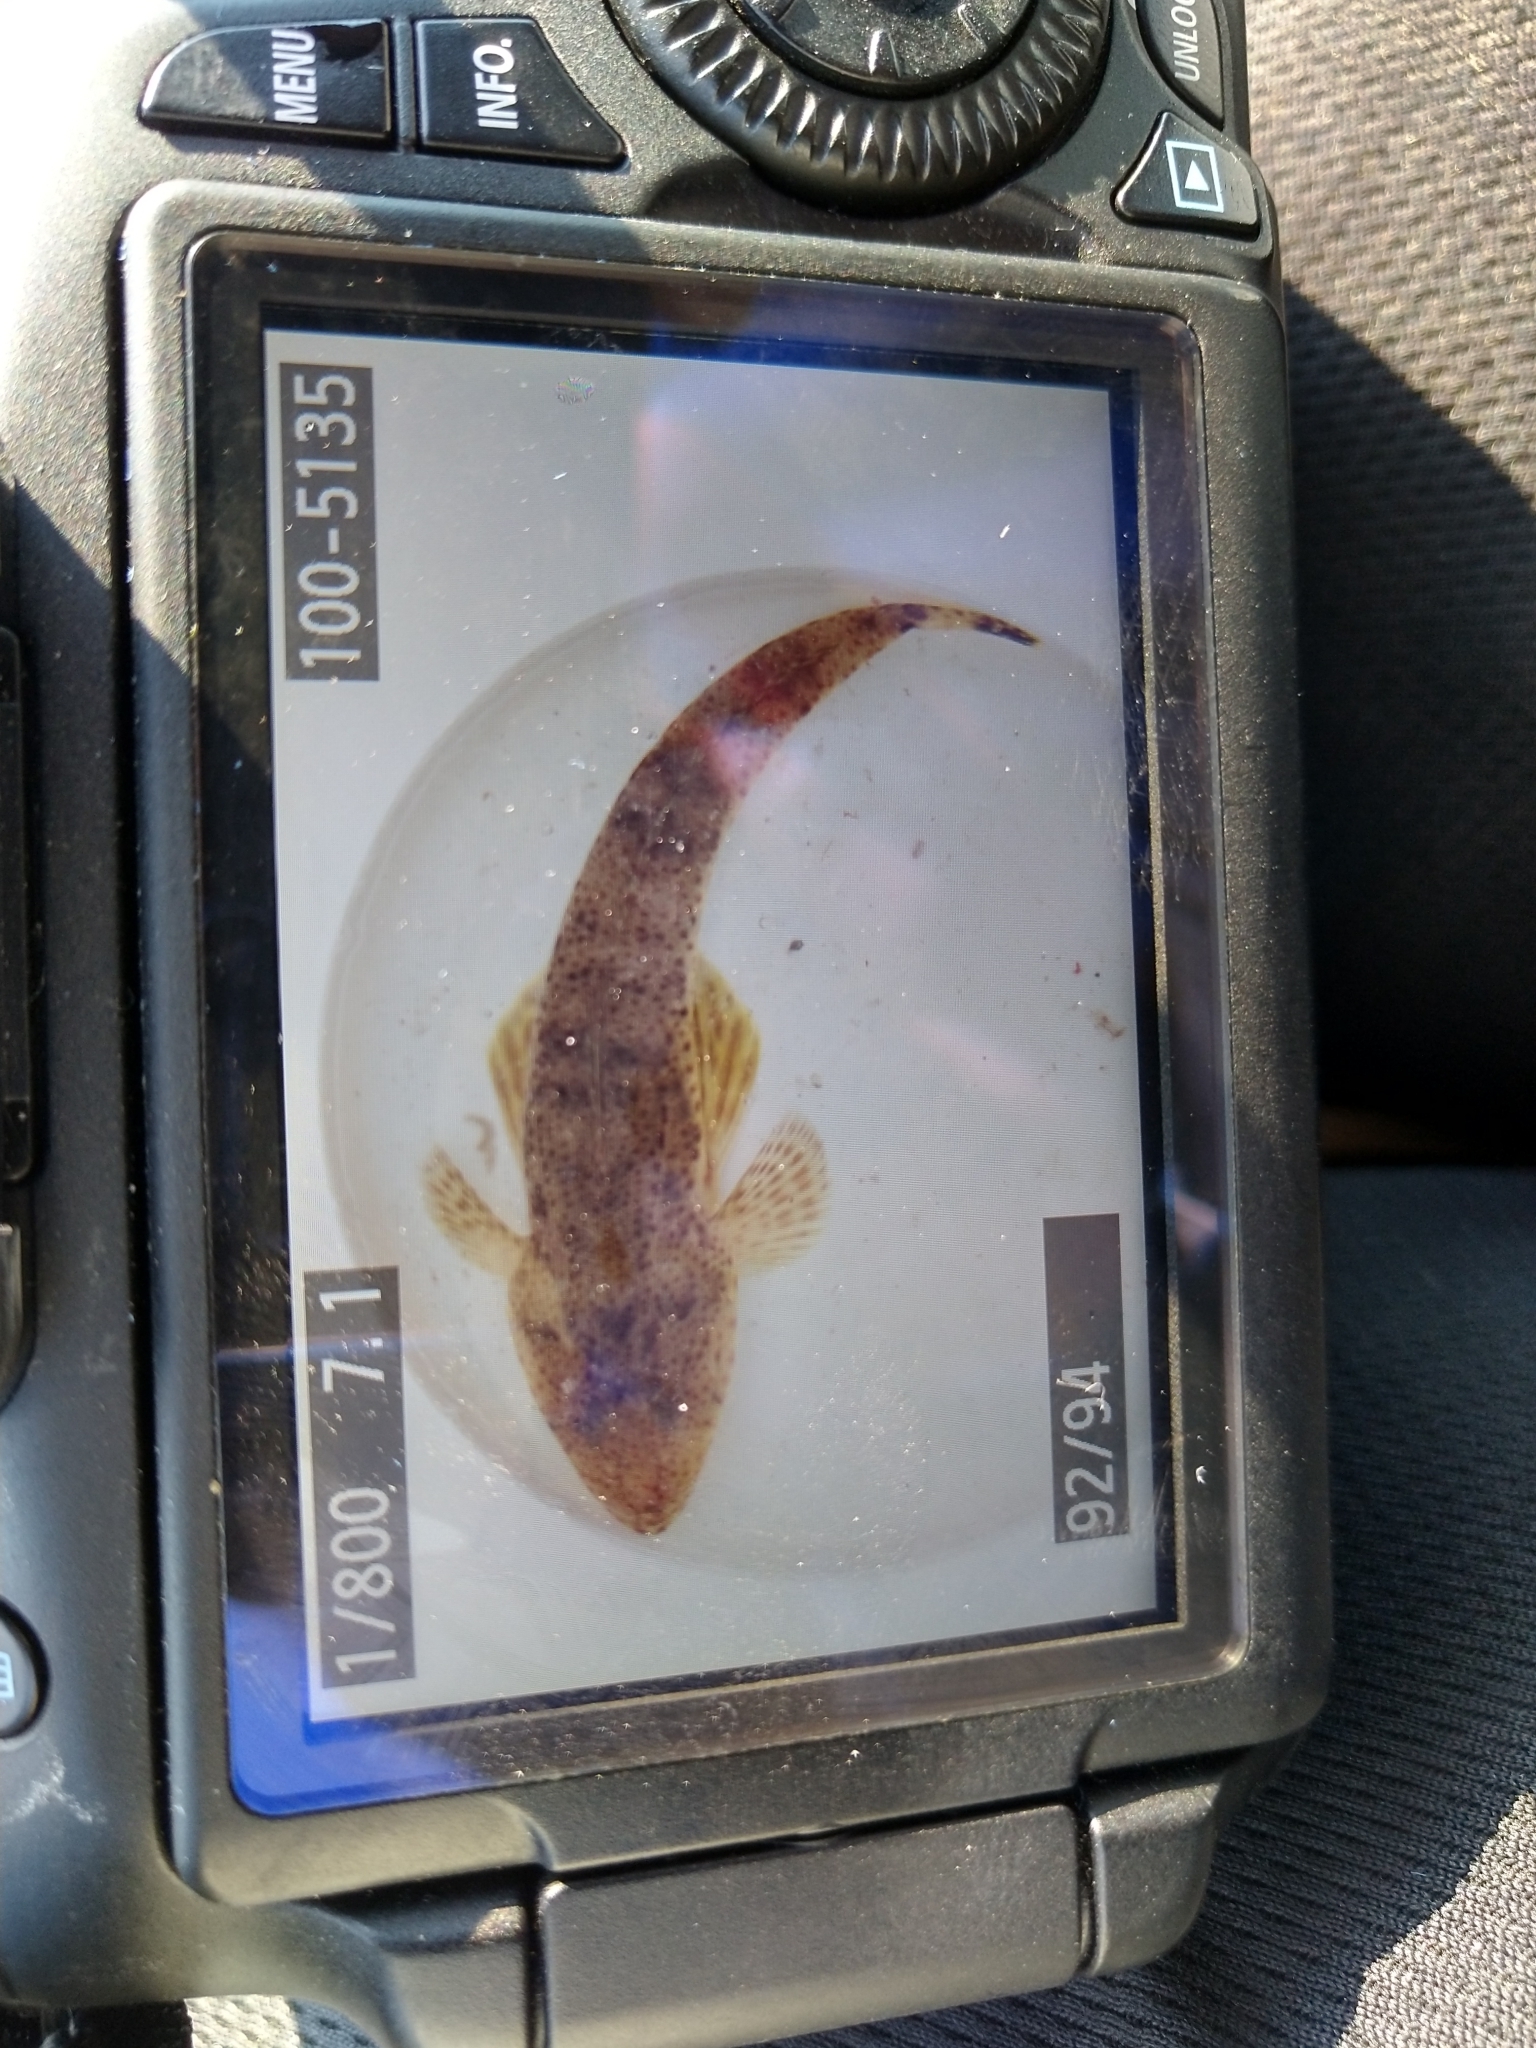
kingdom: Animalia
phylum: Chordata
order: Scorpaeniformes
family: Platycephalidae
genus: Platycephalus
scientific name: Platycephalus bassensis
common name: Sand flathead
